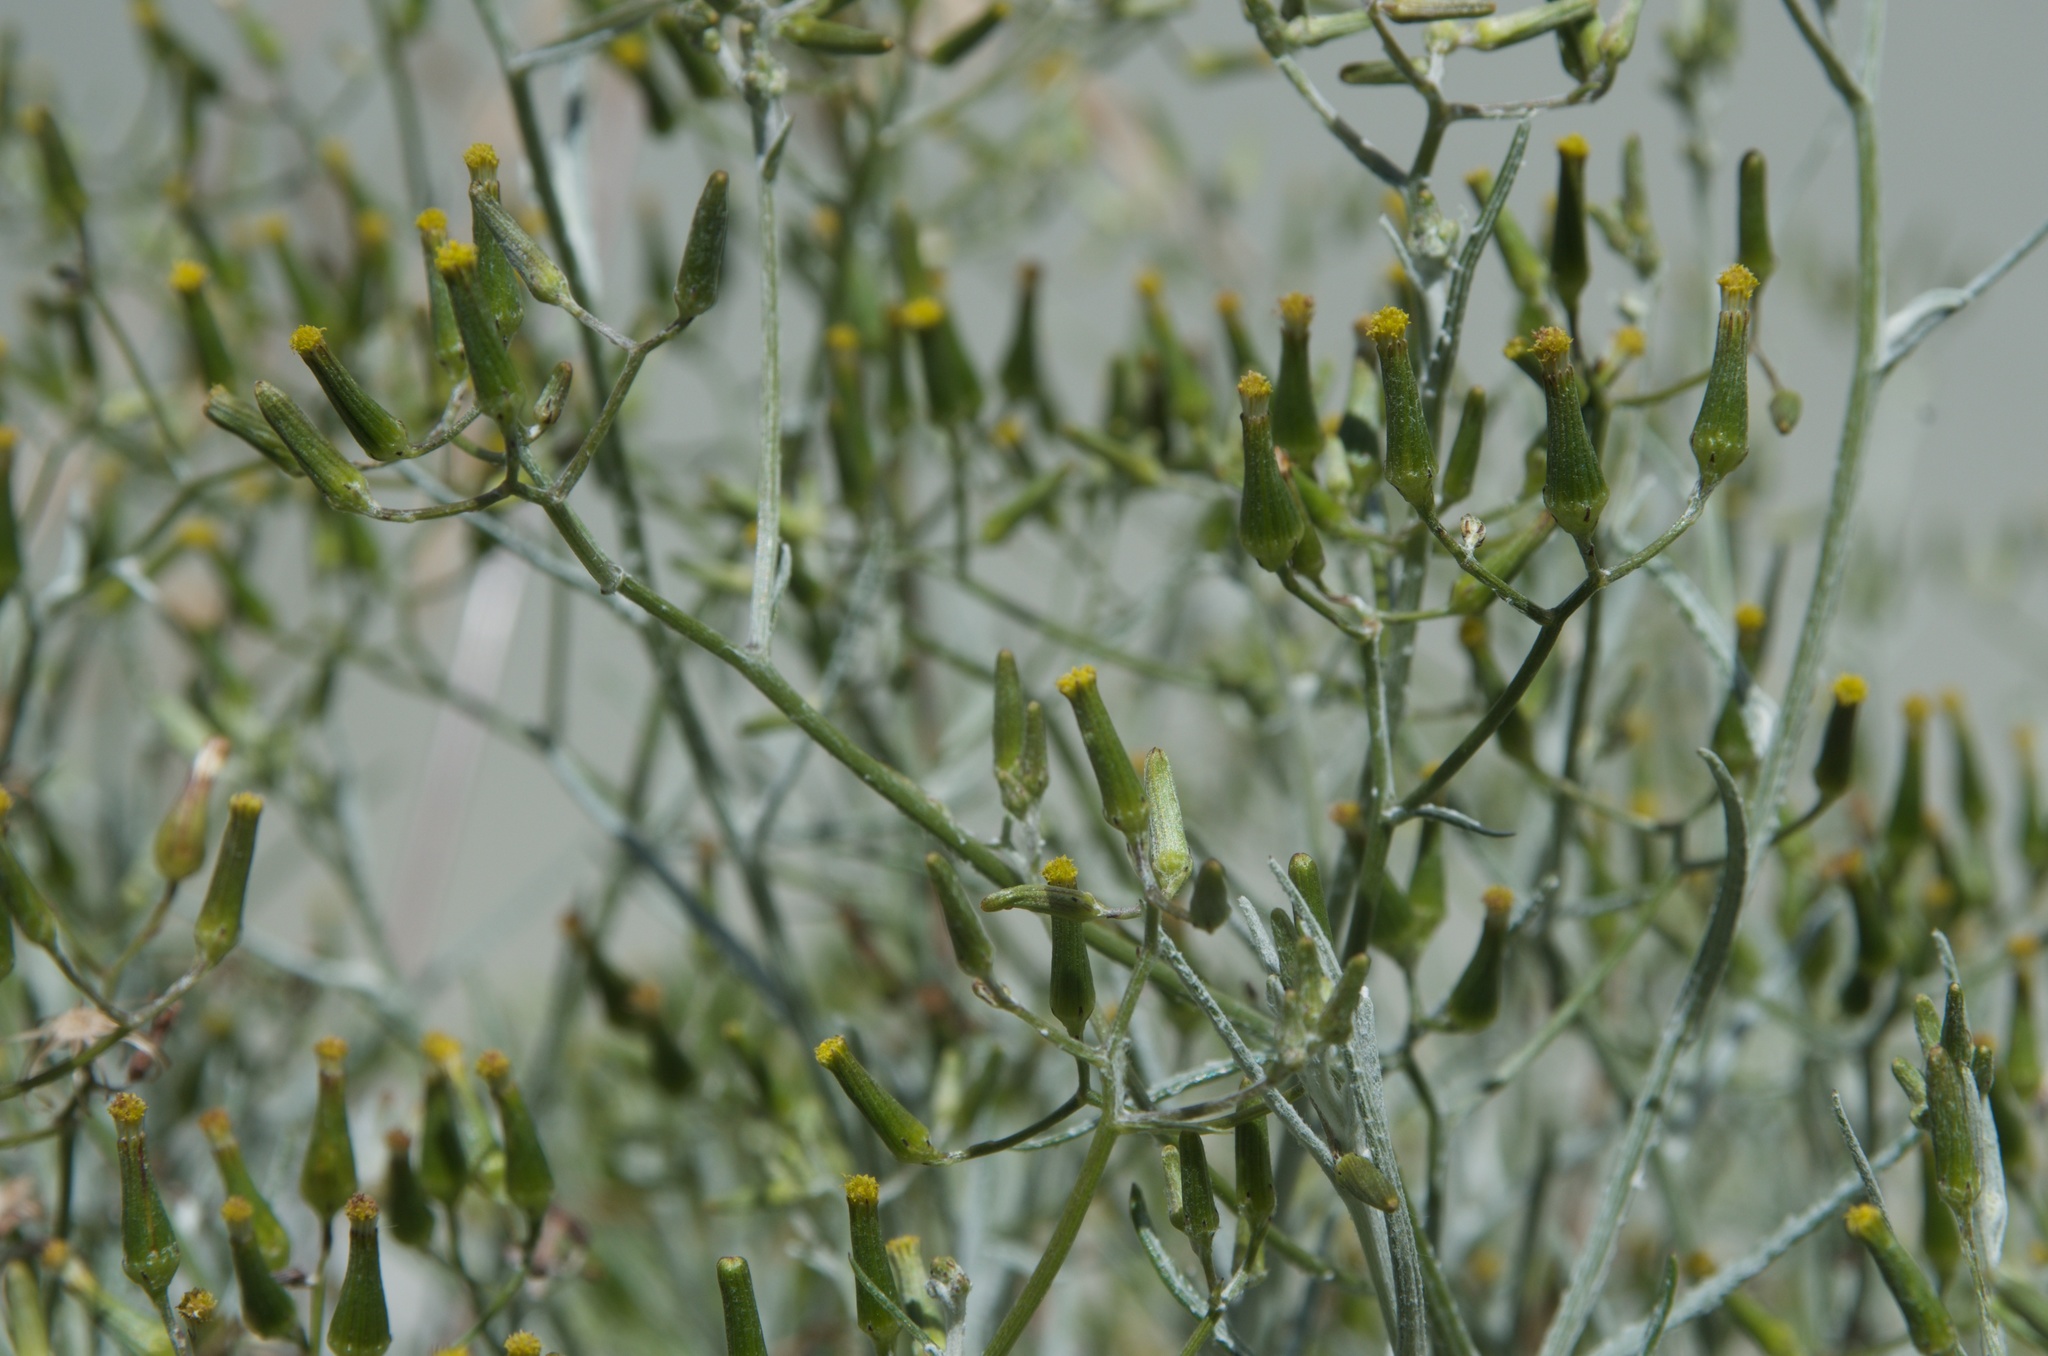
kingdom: Plantae
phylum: Tracheophyta
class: Magnoliopsida
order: Asterales
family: Asteraceae
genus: Senecio
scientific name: Senecio quadridentatus
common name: Cotton fireweed
